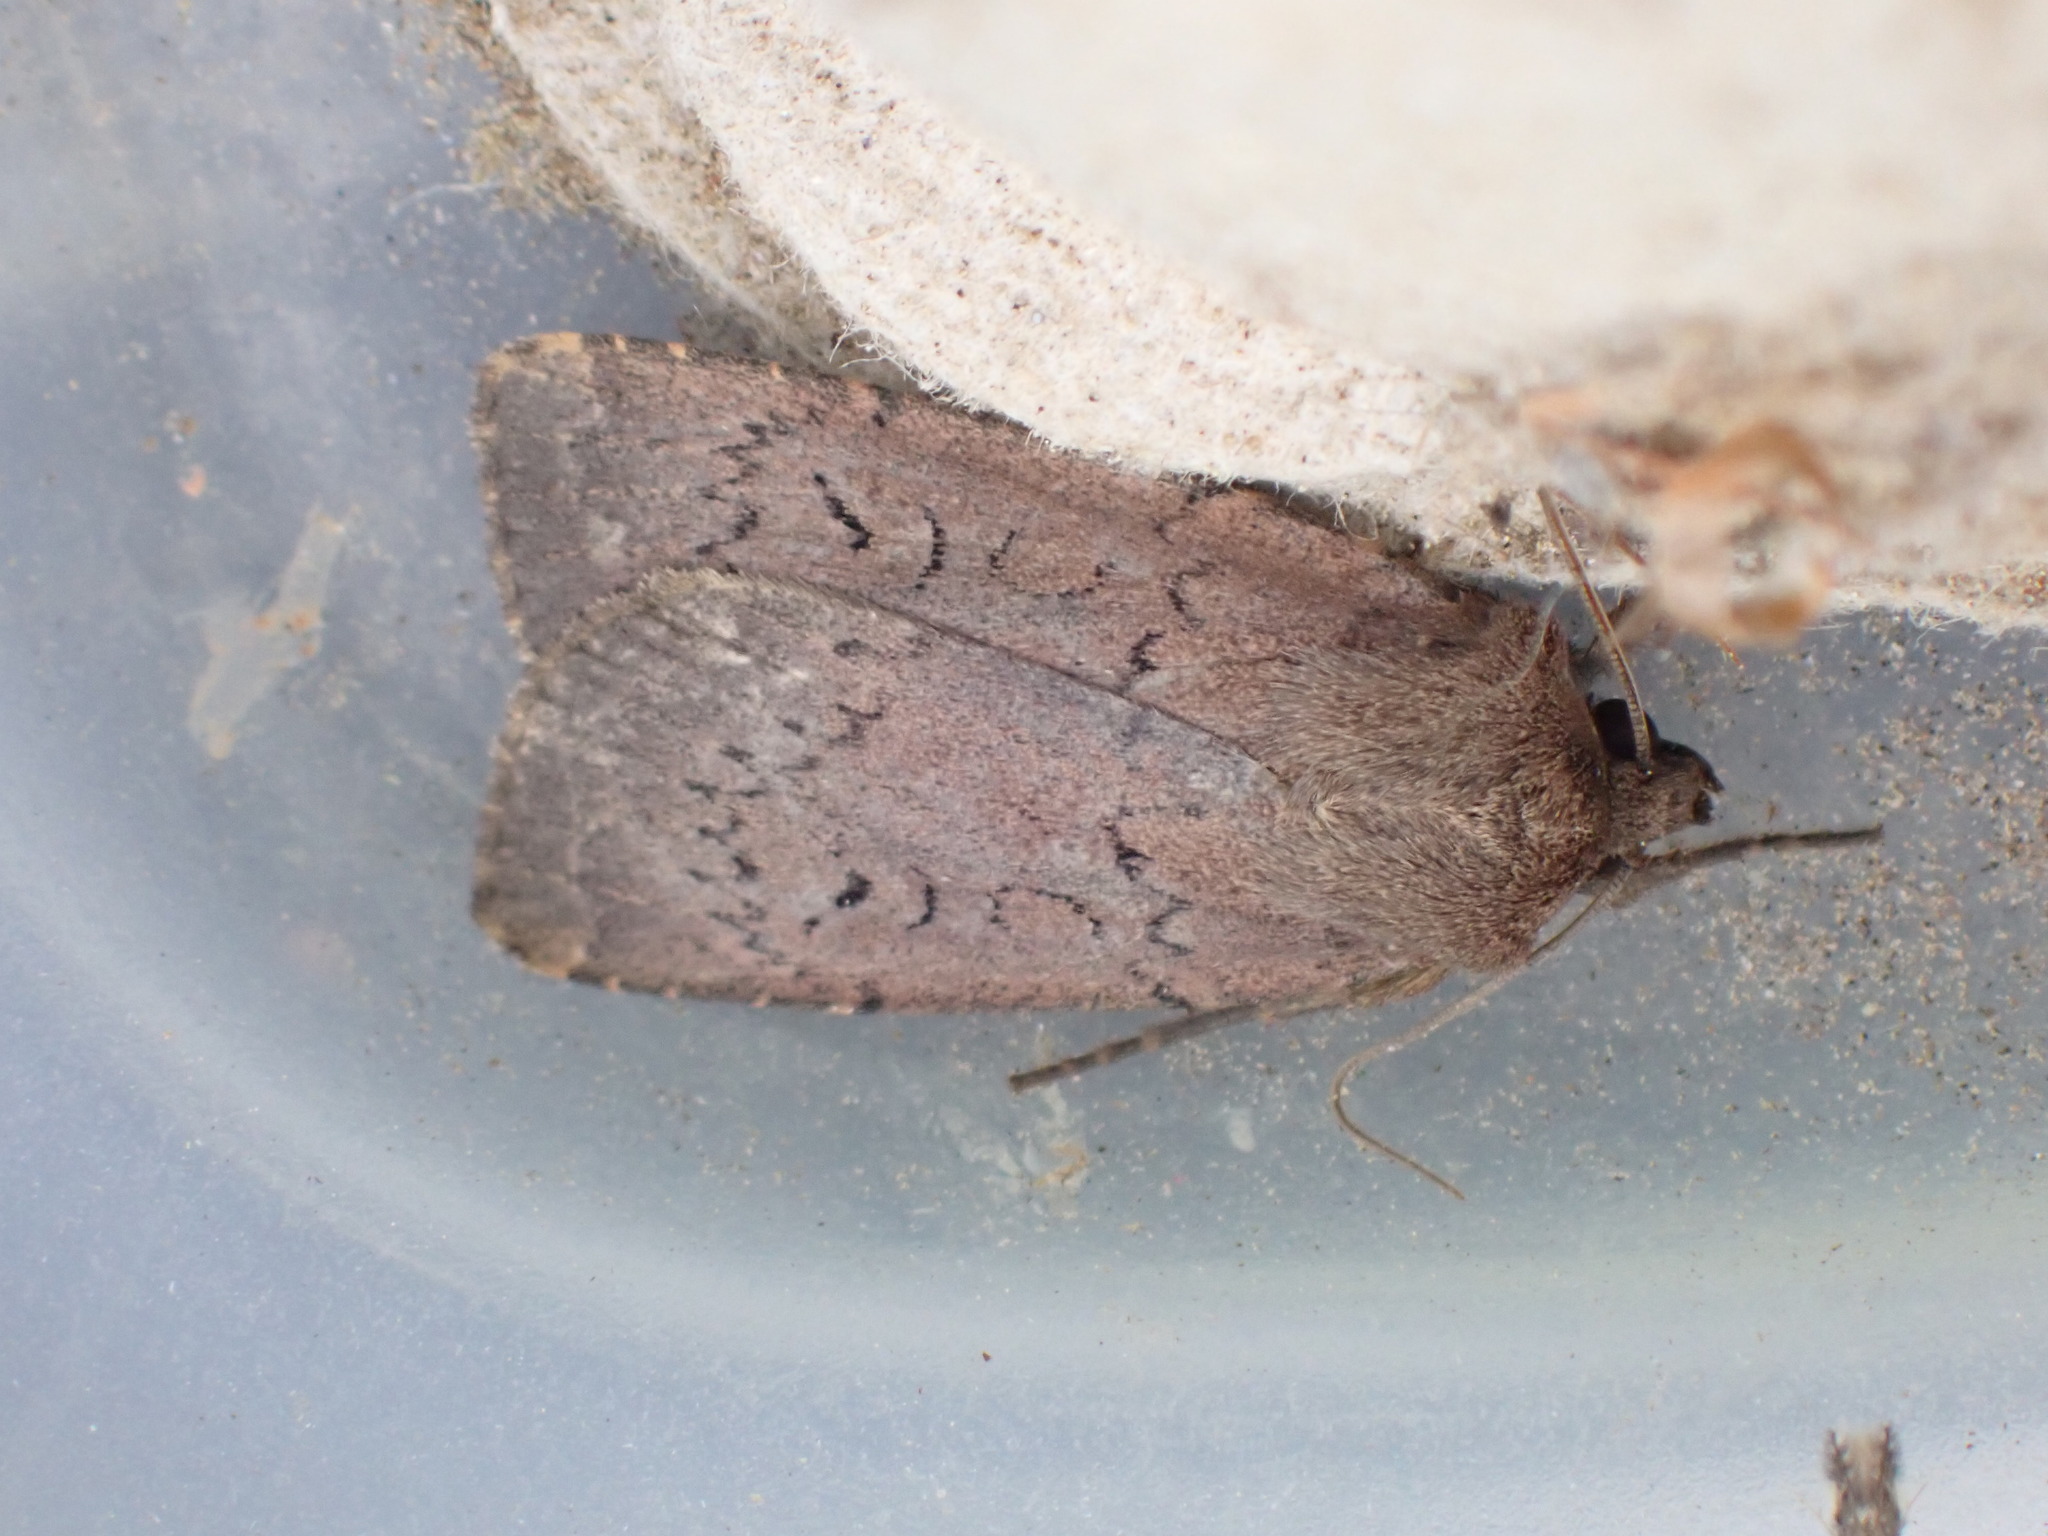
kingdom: Animalia
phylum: Arthropoda
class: Insecta
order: Lepidoptera
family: Noctuidae
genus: Graphiphora
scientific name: Graphiphora augur
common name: Double dart
